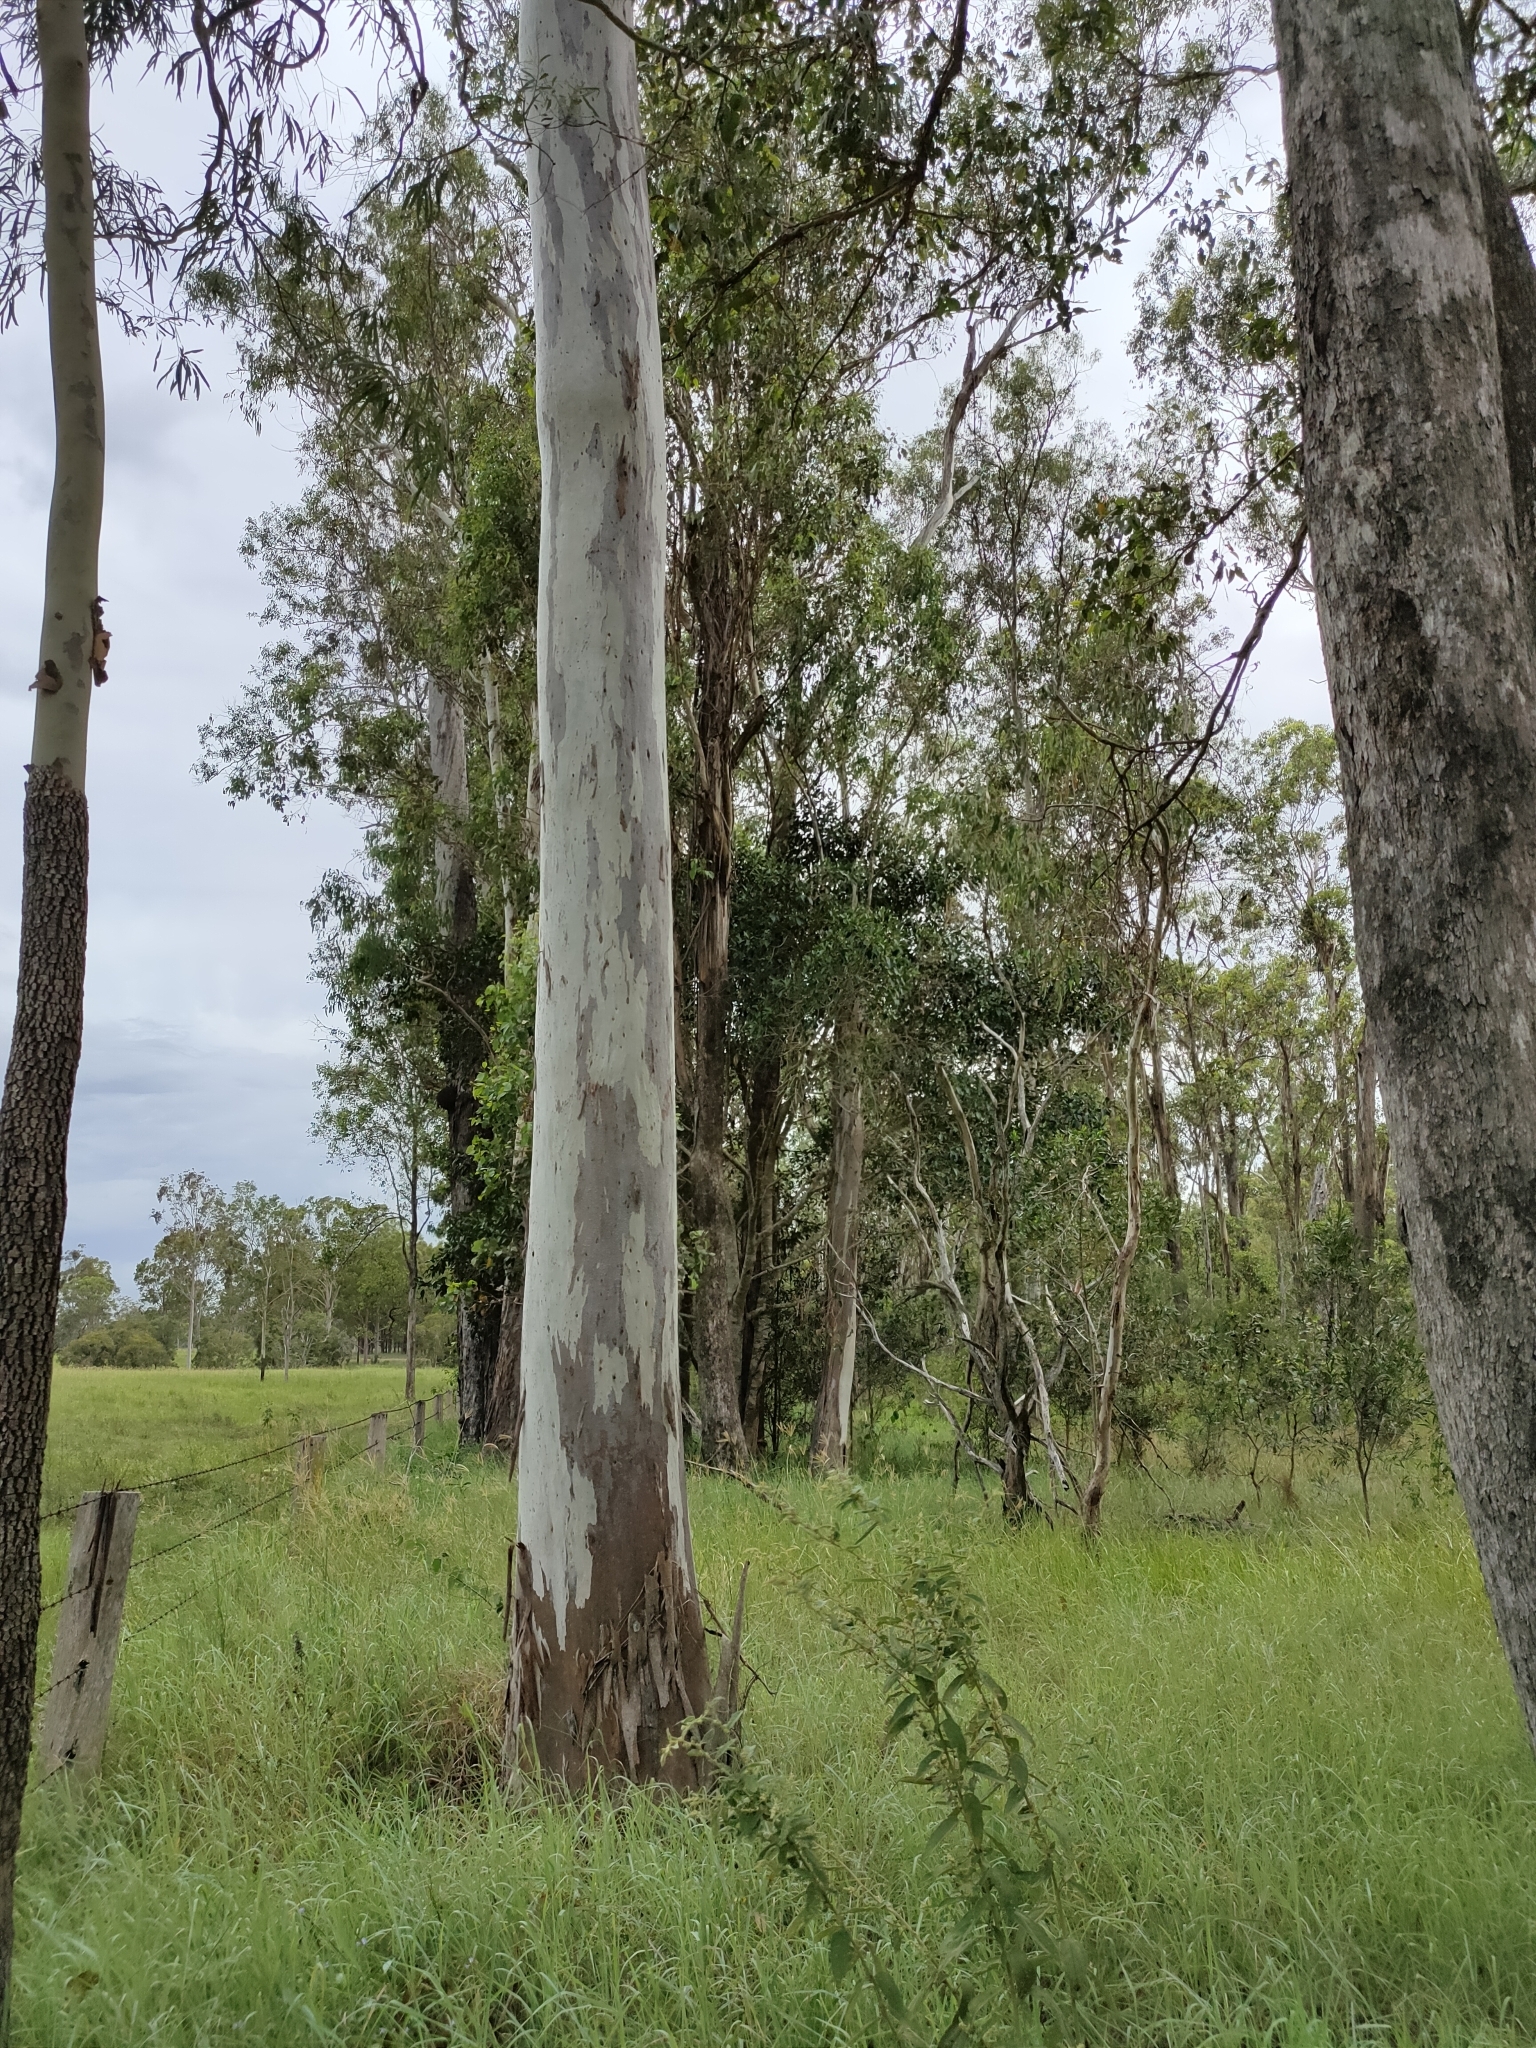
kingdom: Plantae
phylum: Tracheophyta
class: Magnoliopsida
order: Myrtales
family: Myrtaceae
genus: Eucalyptus
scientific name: Eucalyptus tereticornis
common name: Forest redgum
